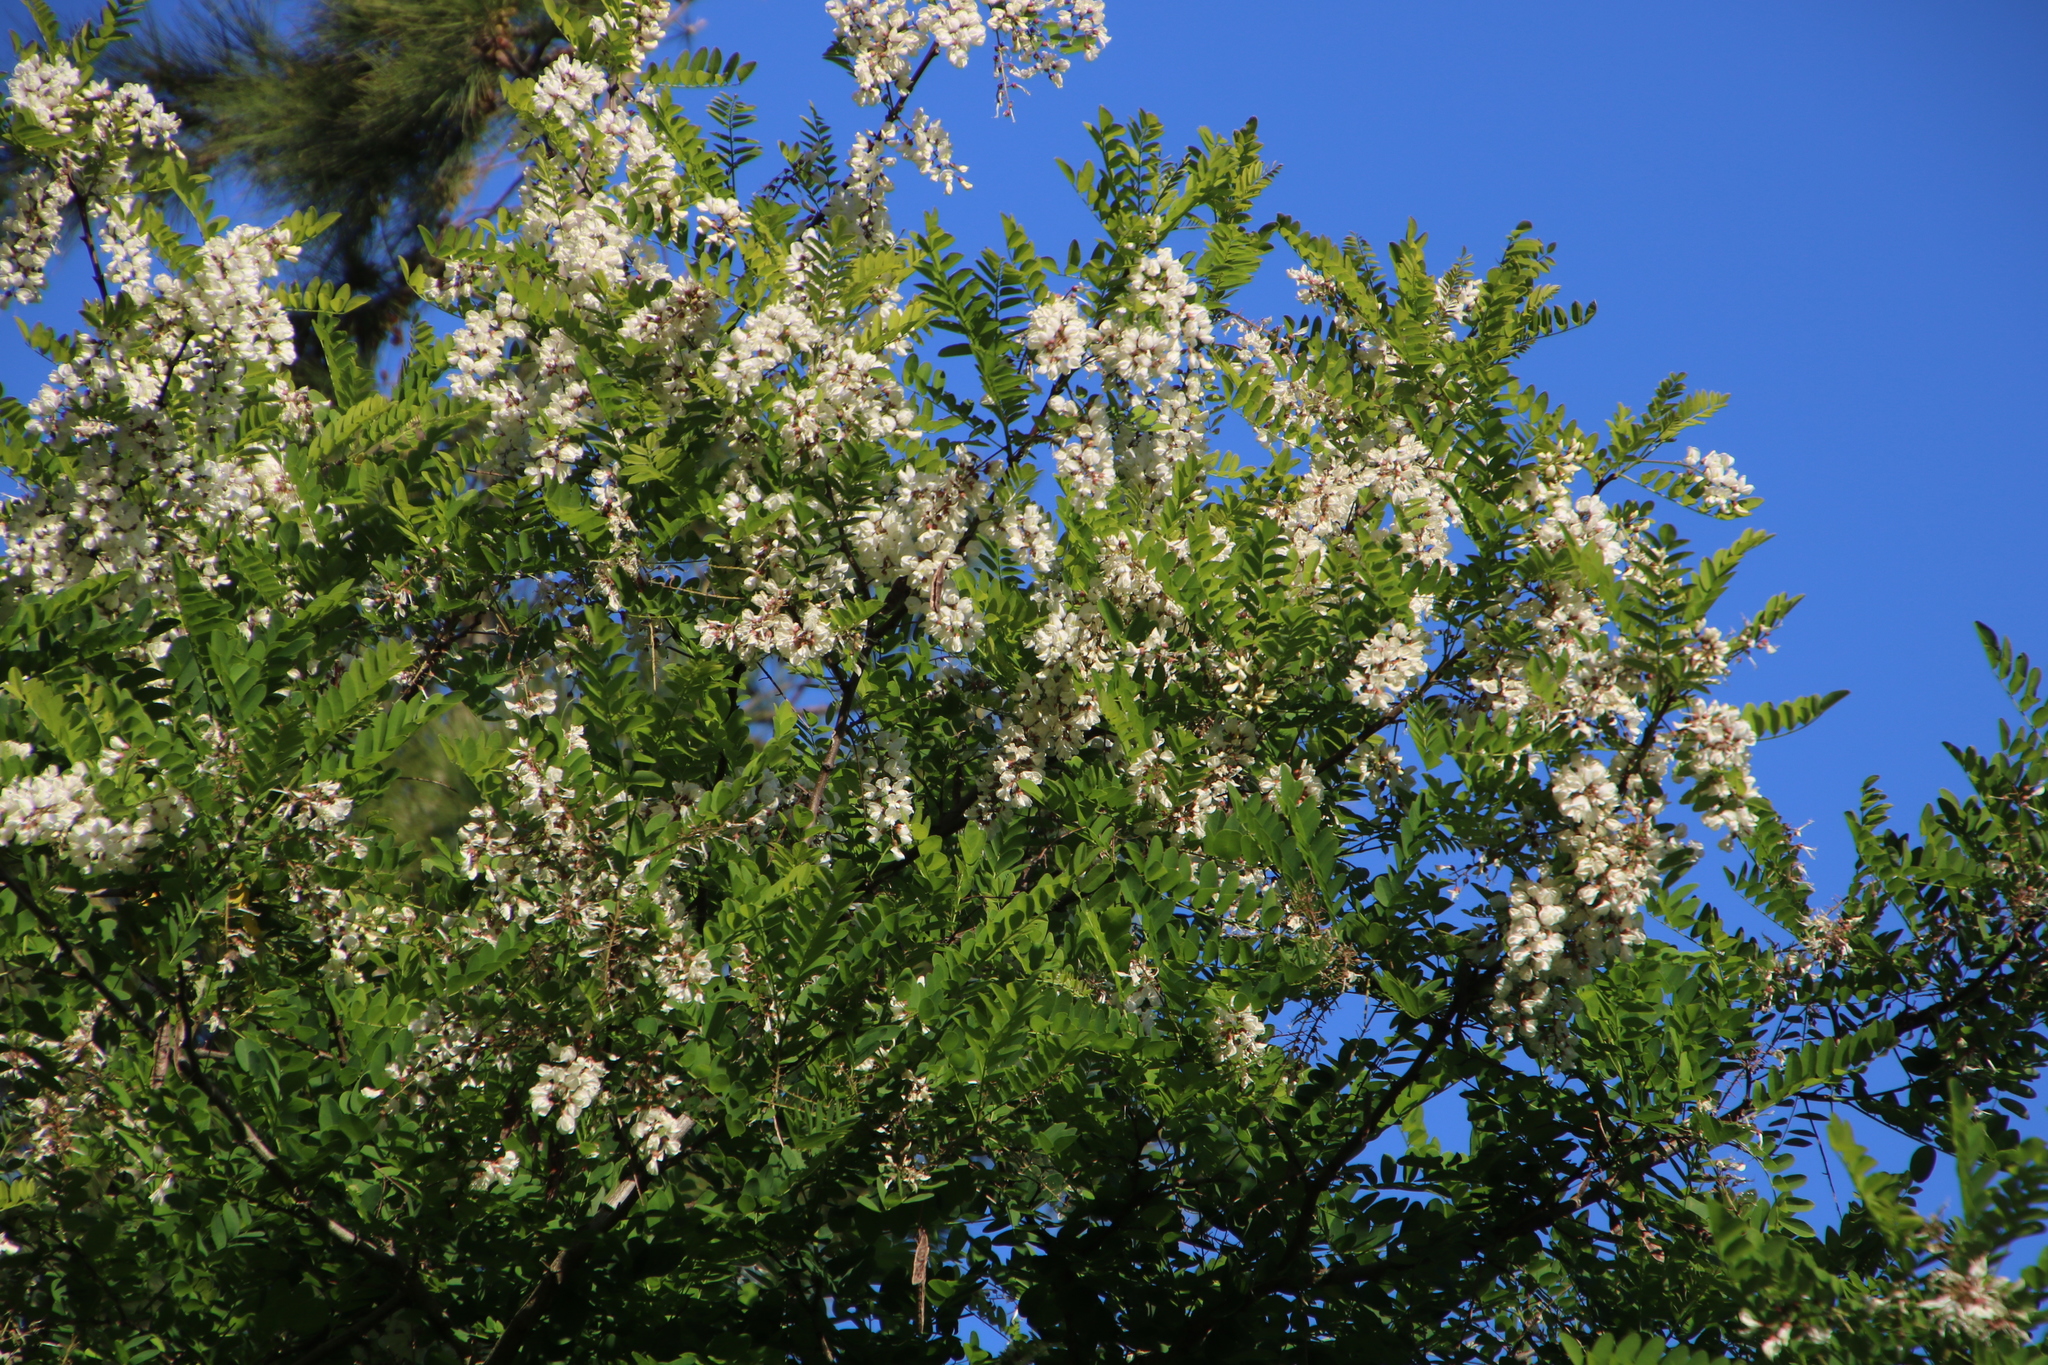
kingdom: Plantae
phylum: Tracheophyta
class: Magnoliopsida
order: Fabales
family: Fabaceae
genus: Robinia
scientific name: Robinia pseudoacacia
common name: Black locust
